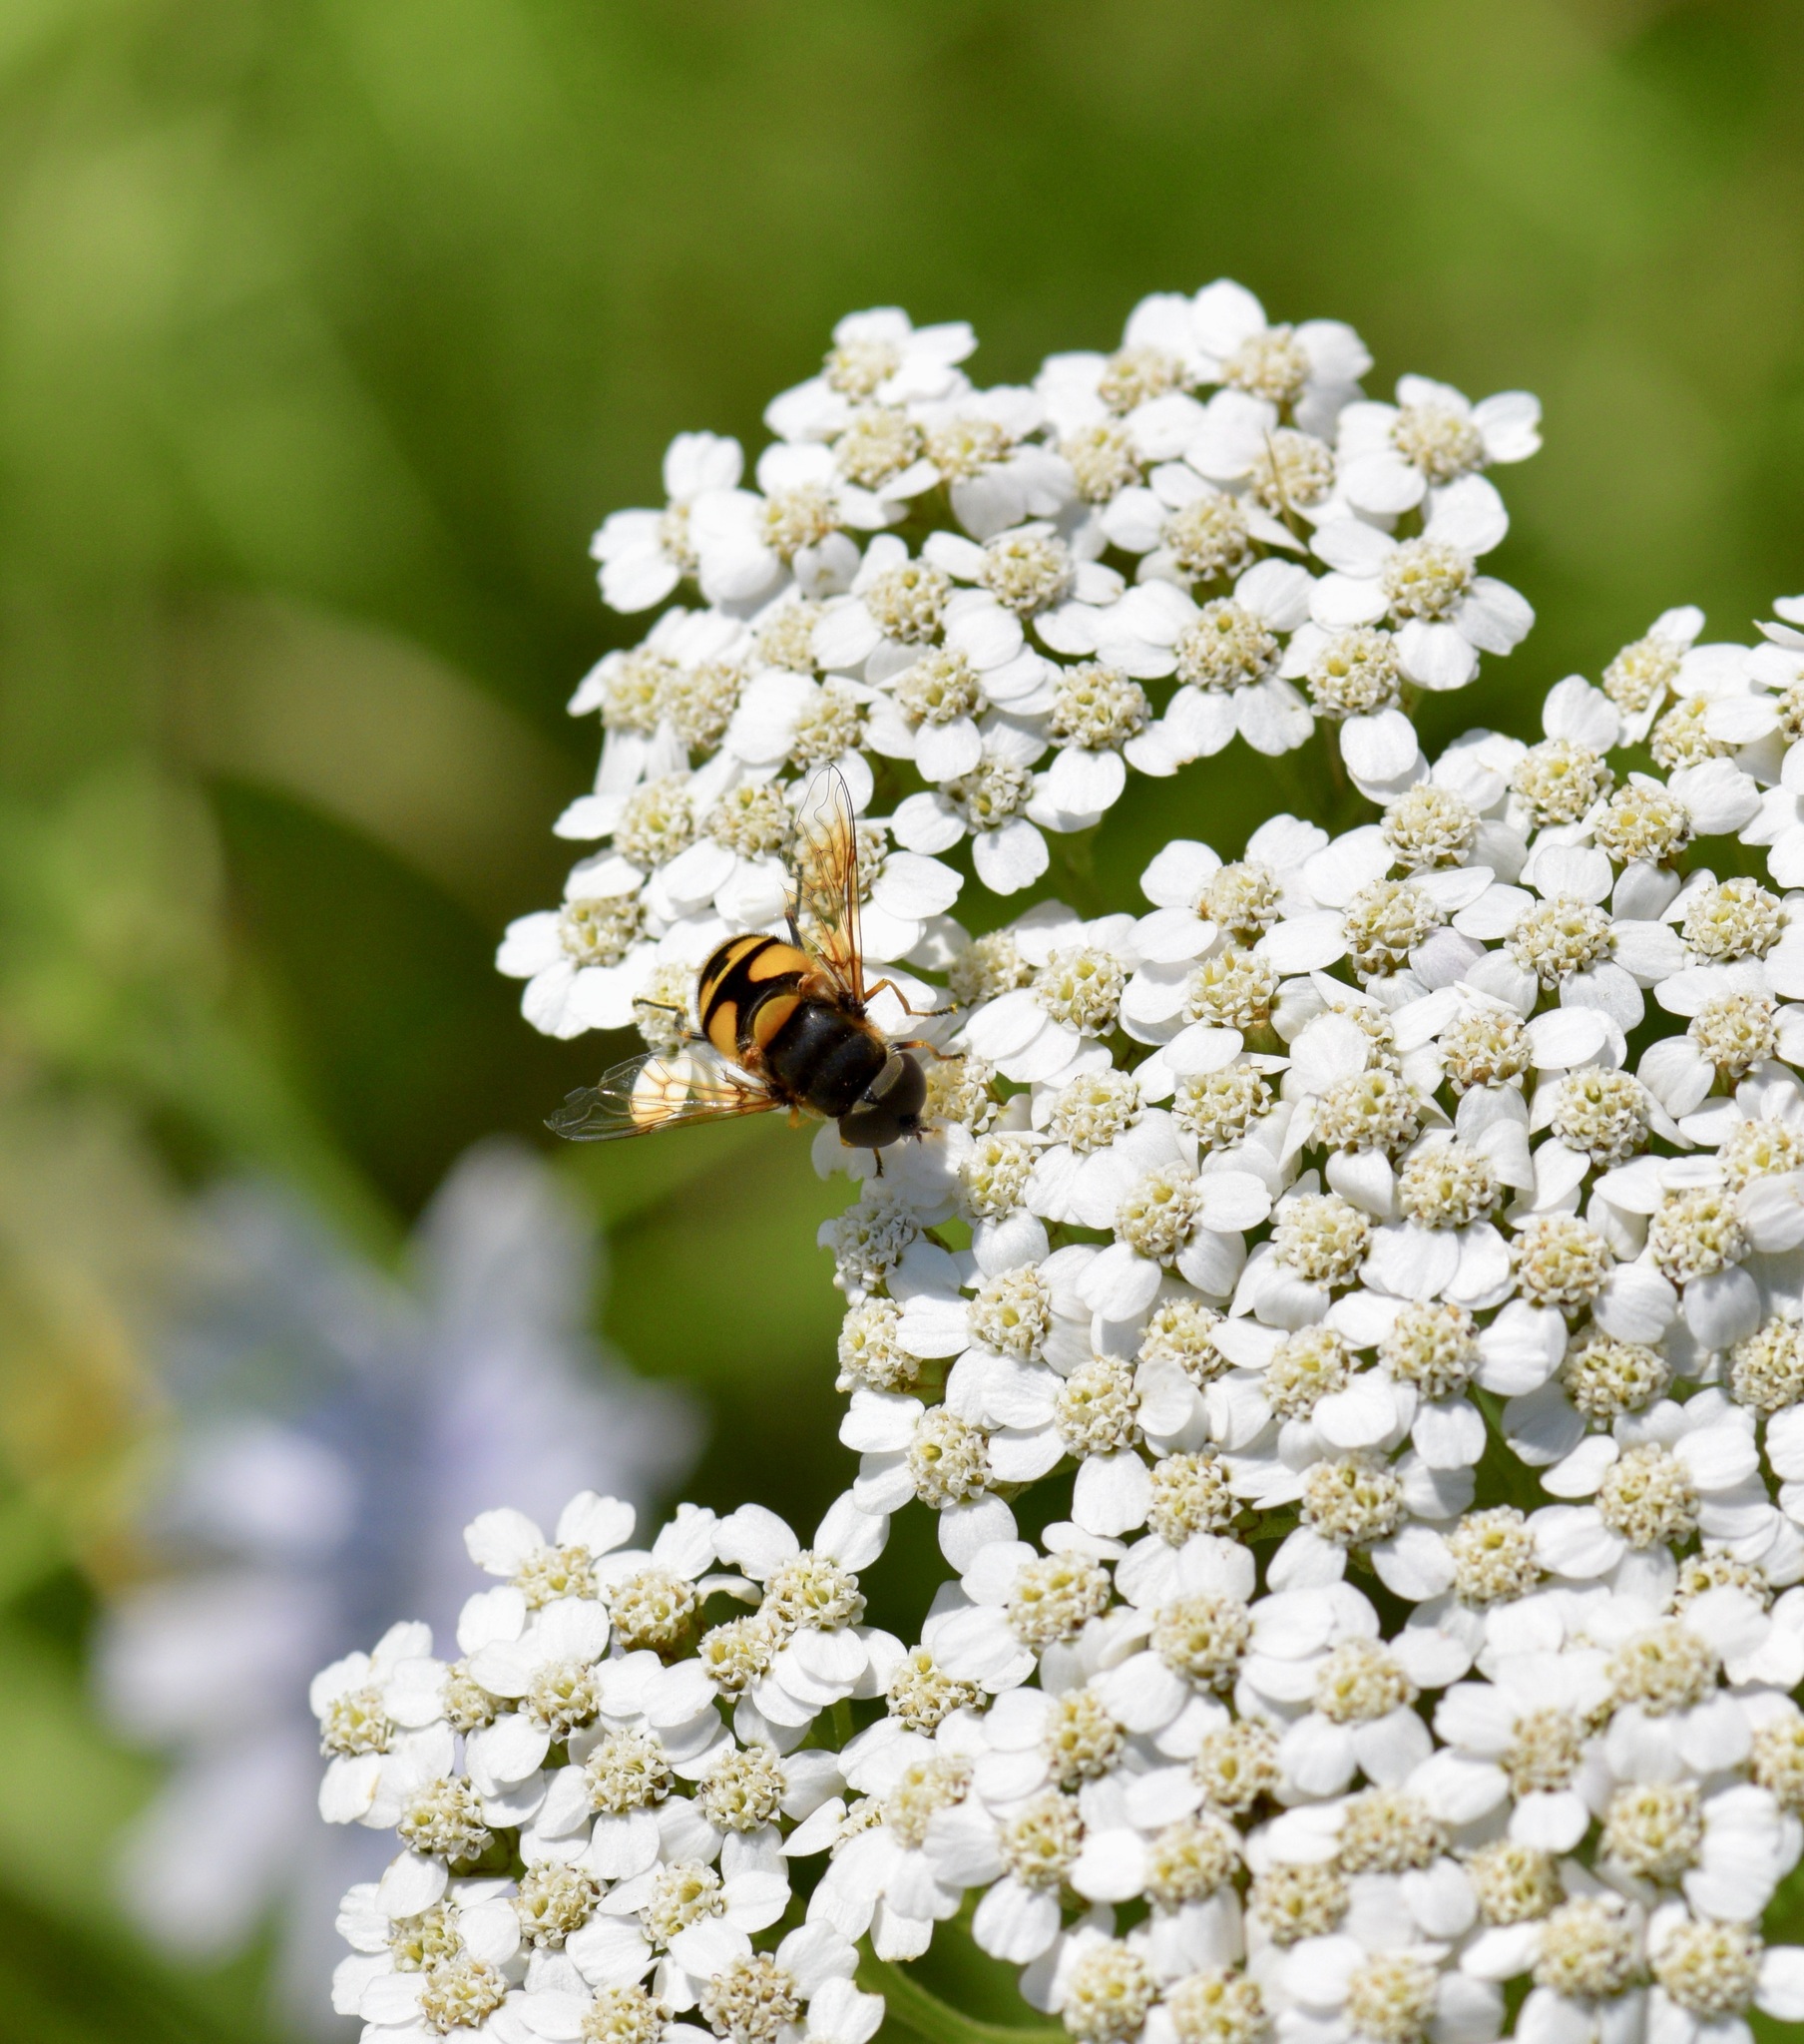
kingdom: Animalia
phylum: Arthropoda
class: Insecta
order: Diptera
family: Syrphidae
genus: Eristalis
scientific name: Eristalis transversa
